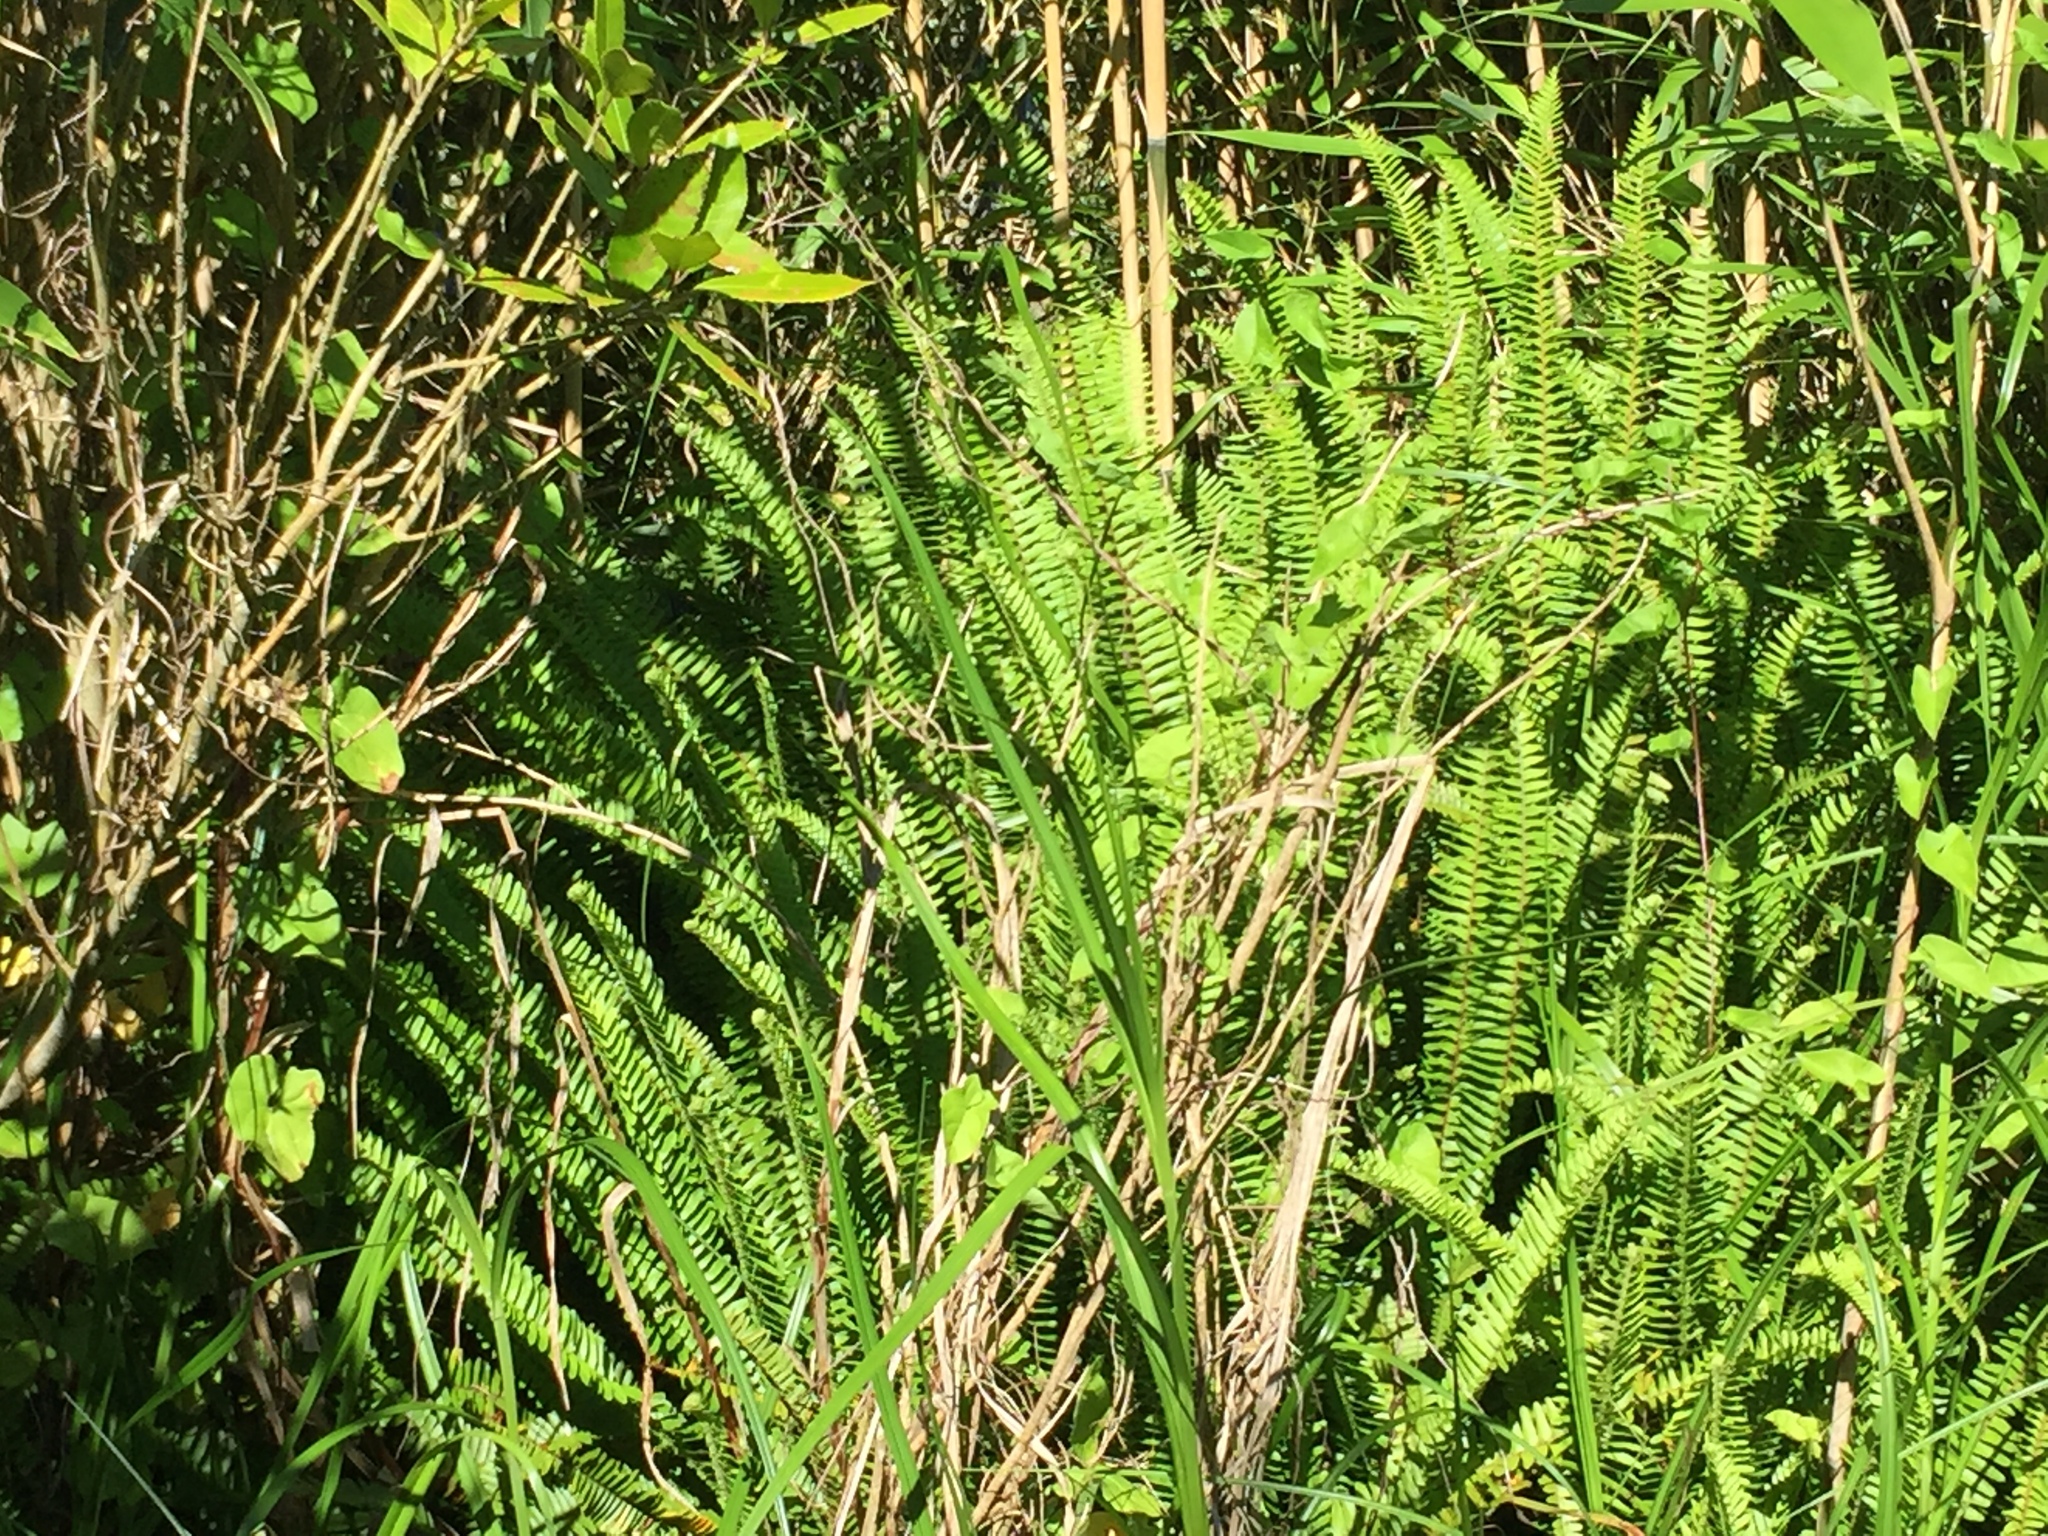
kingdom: Plantae
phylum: Tracheophyta
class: Polypodiopsida
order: Polypodiales
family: Nephrolepidaceae
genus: Nephrolepis
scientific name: Nephrolepis cordifolia
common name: Narrow swordfern
